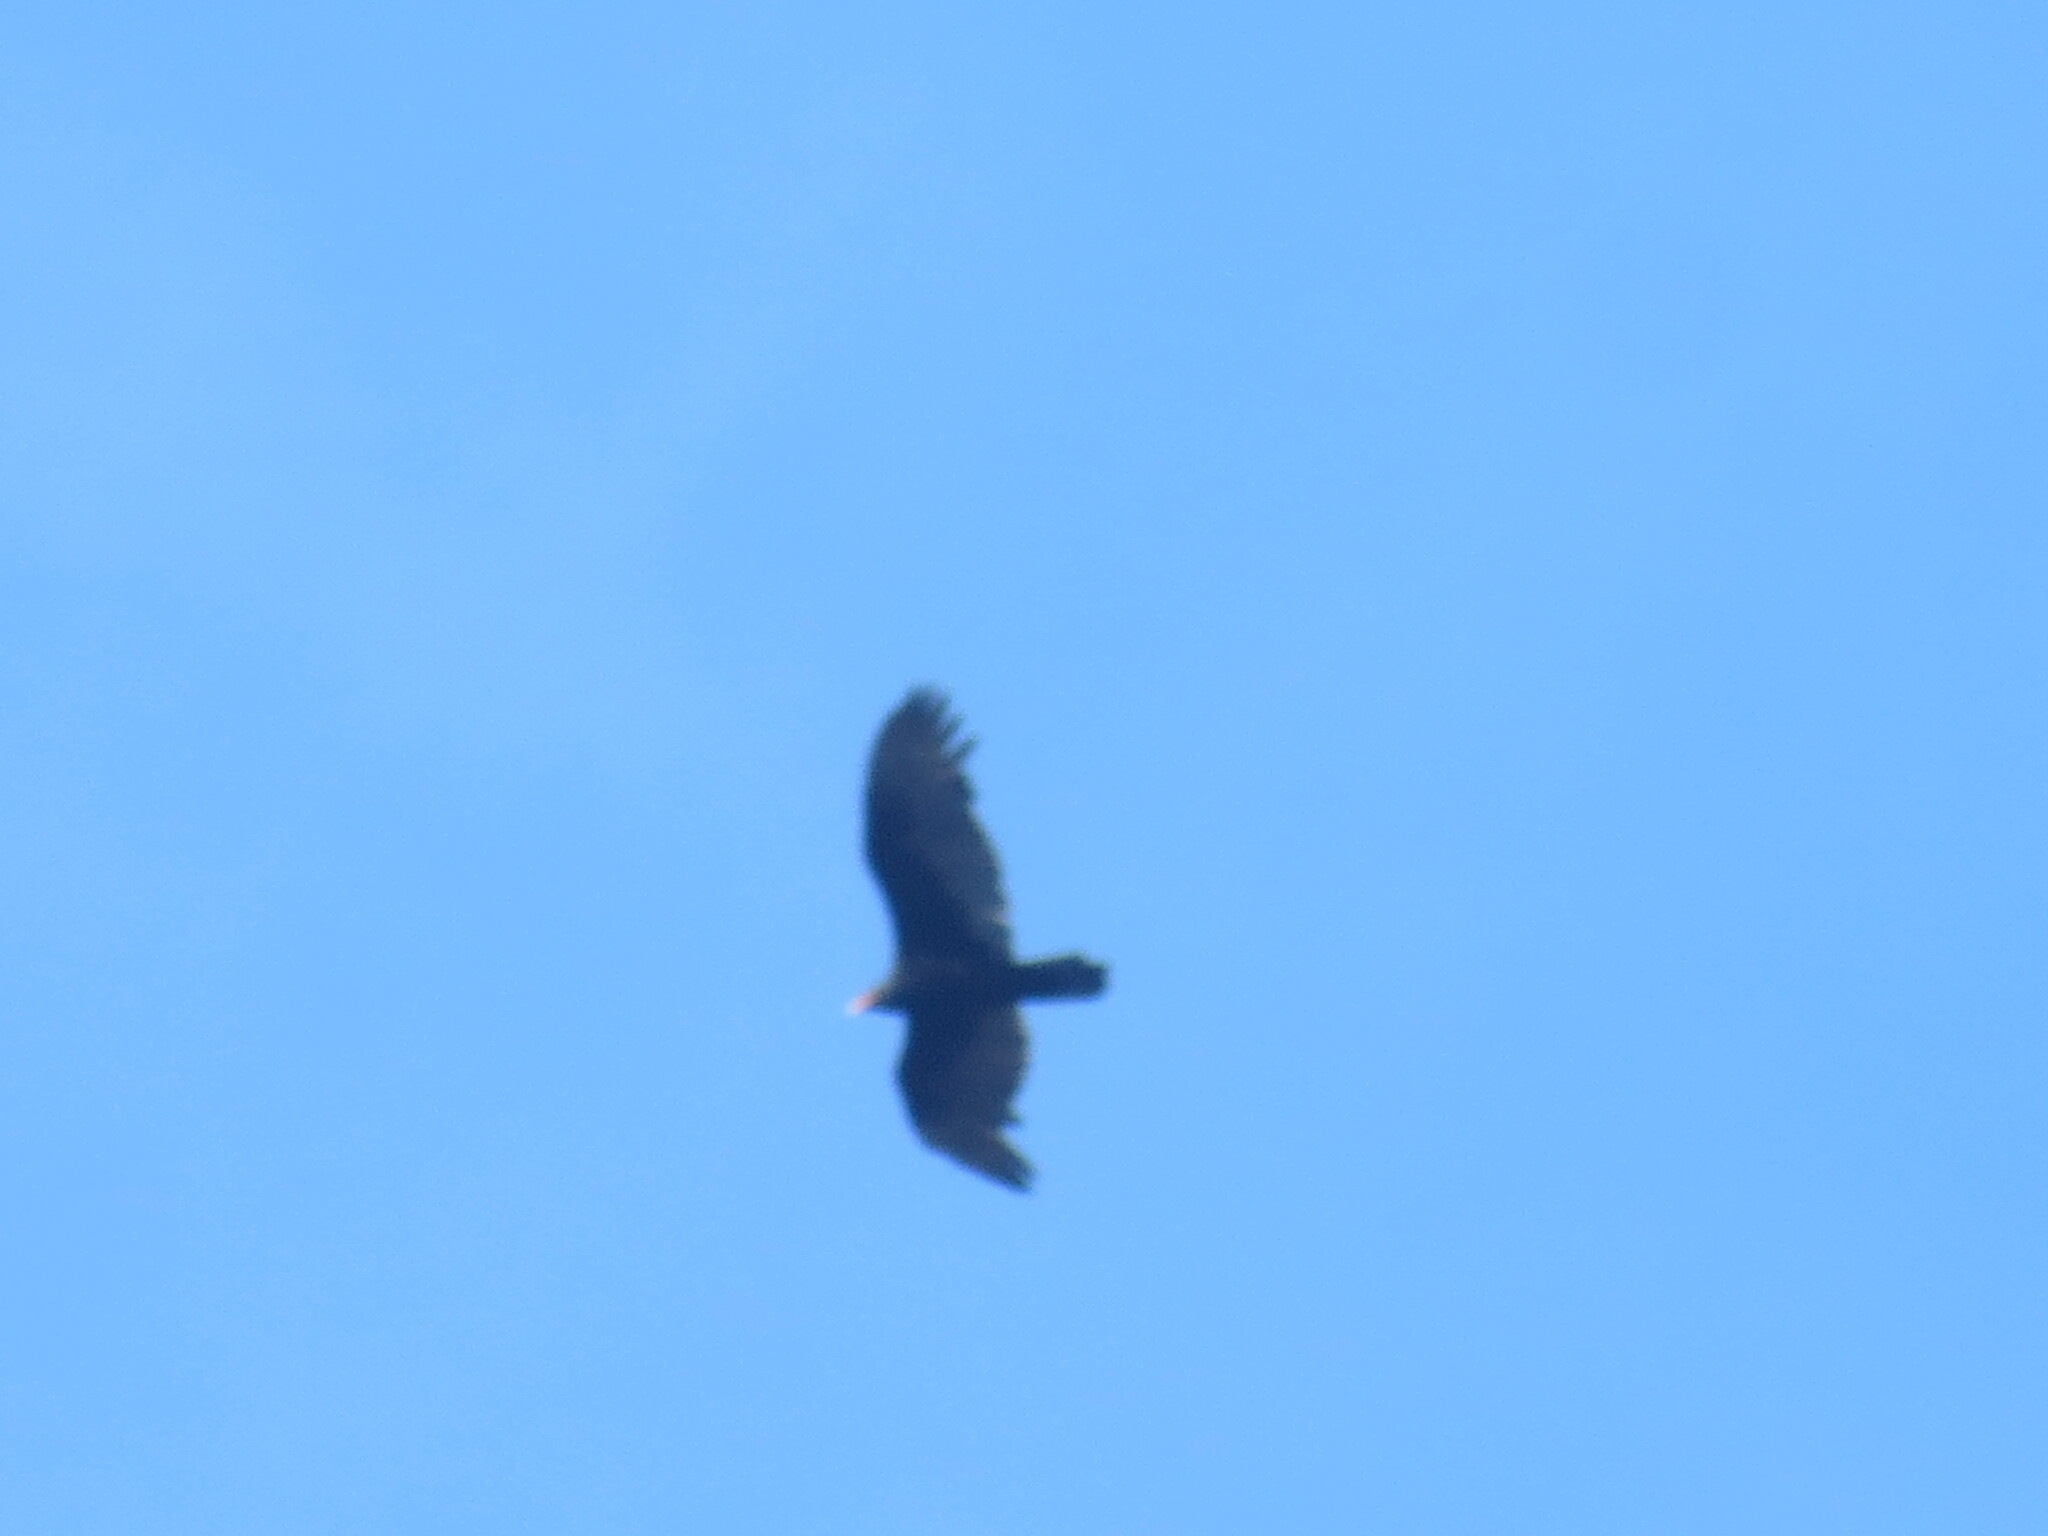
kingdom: Animalia
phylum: Chordata
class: Aves
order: Accipitriformes
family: Cathartidae
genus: Cathartes
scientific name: Cathartes aura
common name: Turkey vulture
